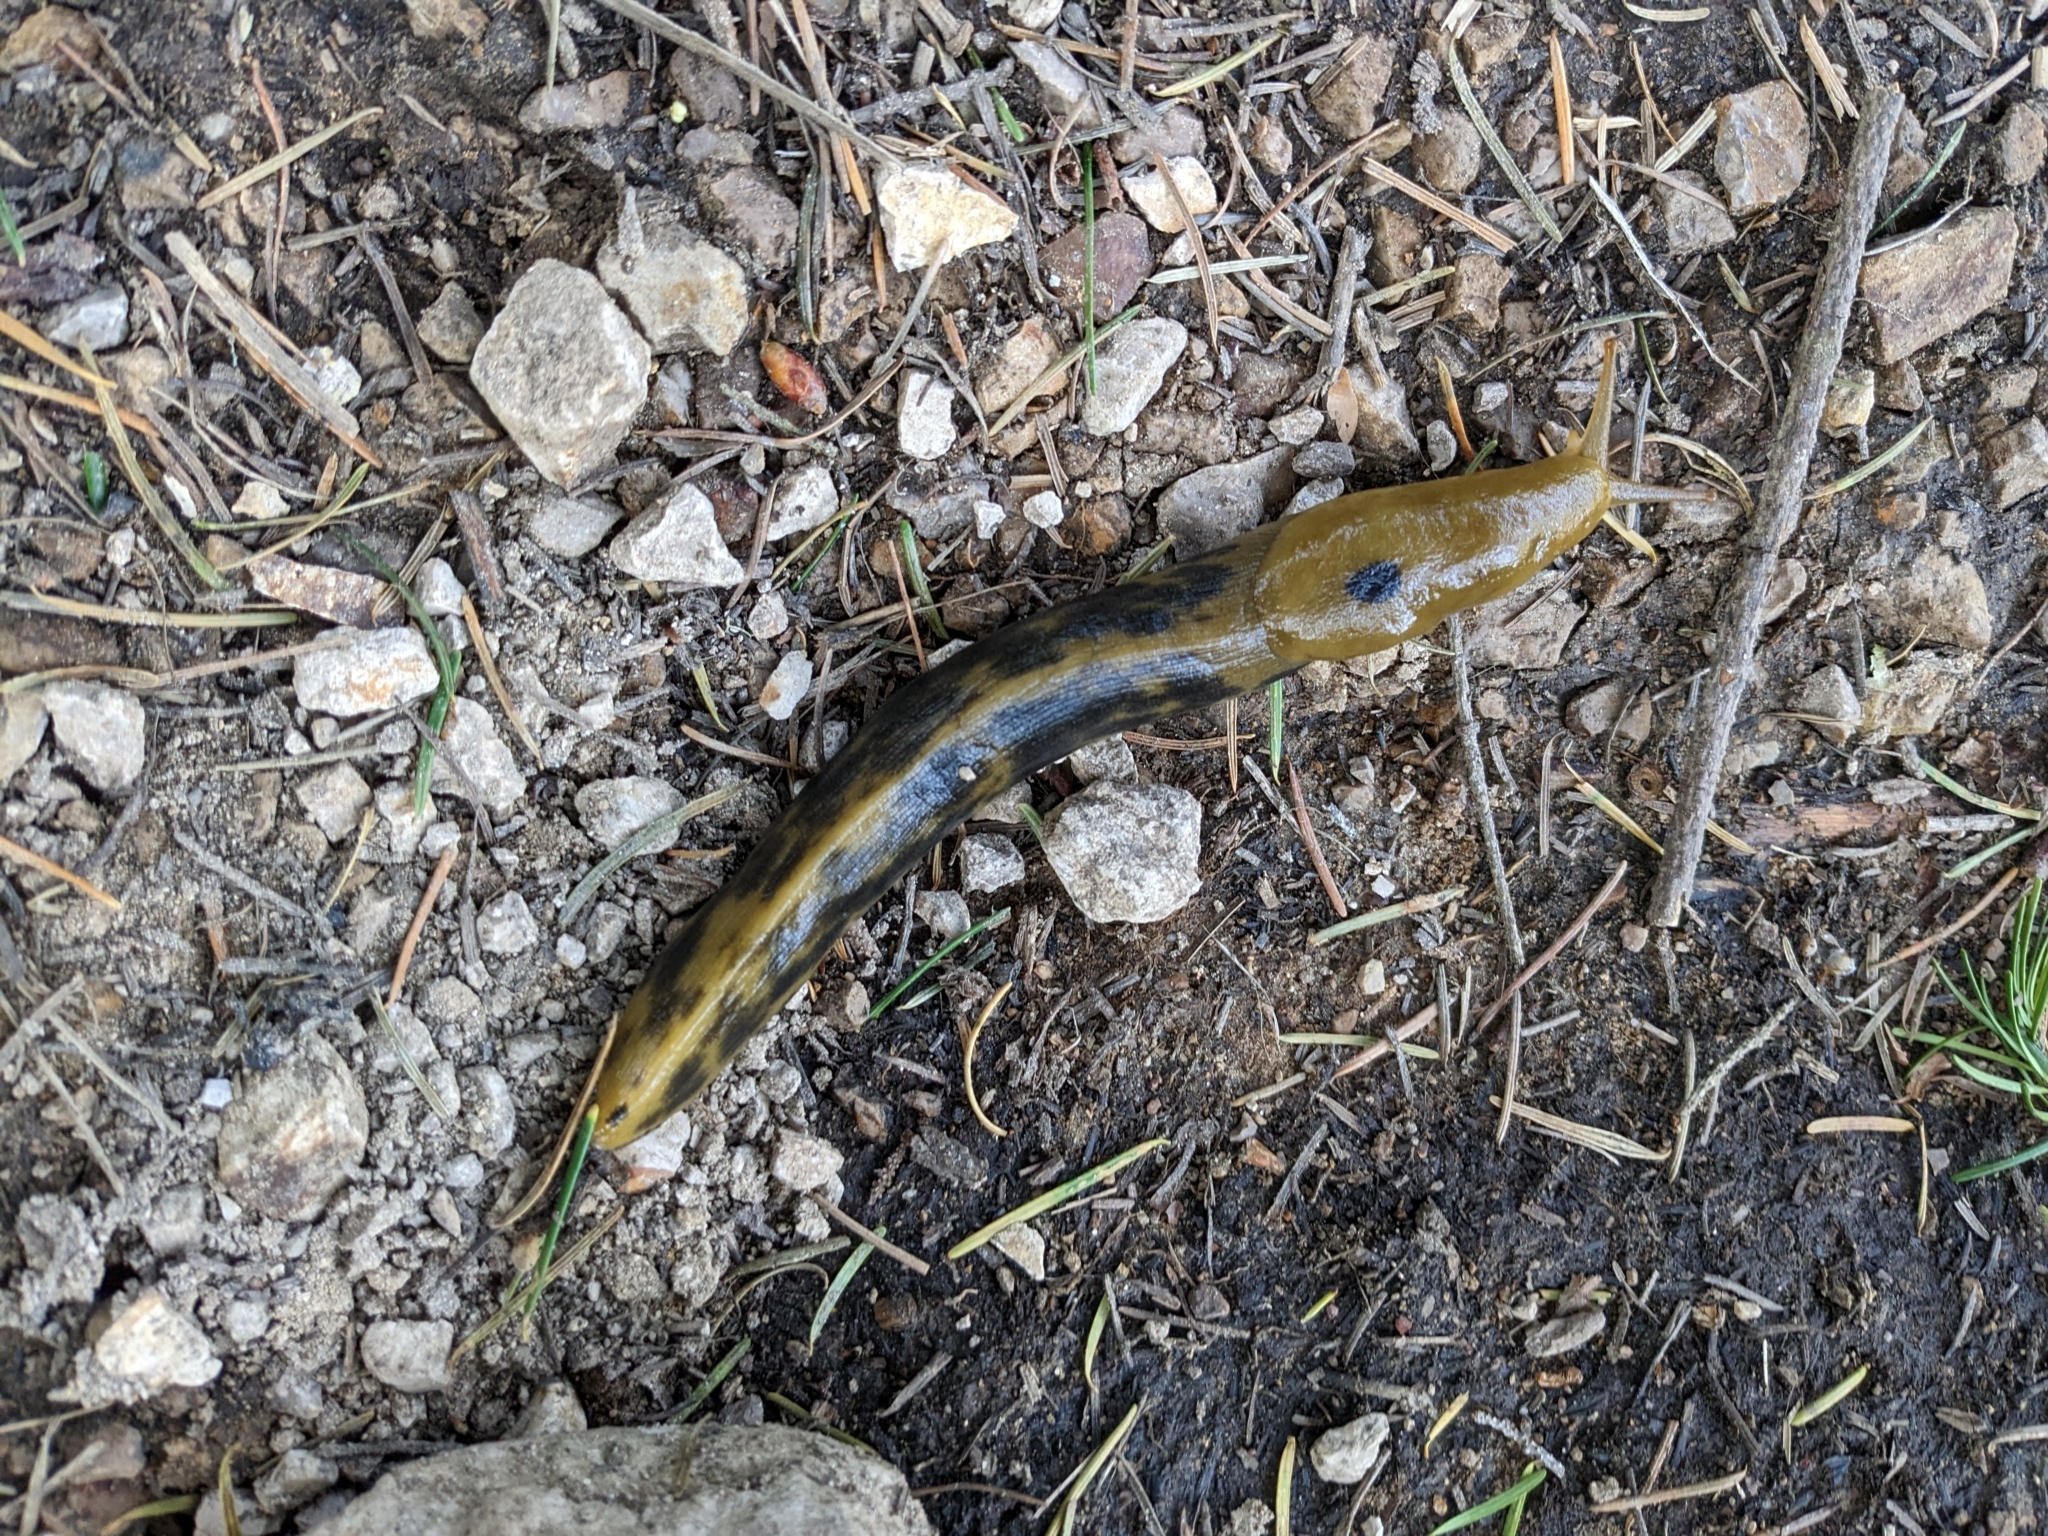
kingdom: Animalia
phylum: Mollusca
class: Gastropoda
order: Stylommatophora
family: Ariolimacidae
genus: Ariolimax
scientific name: Ariolimax buttoni
